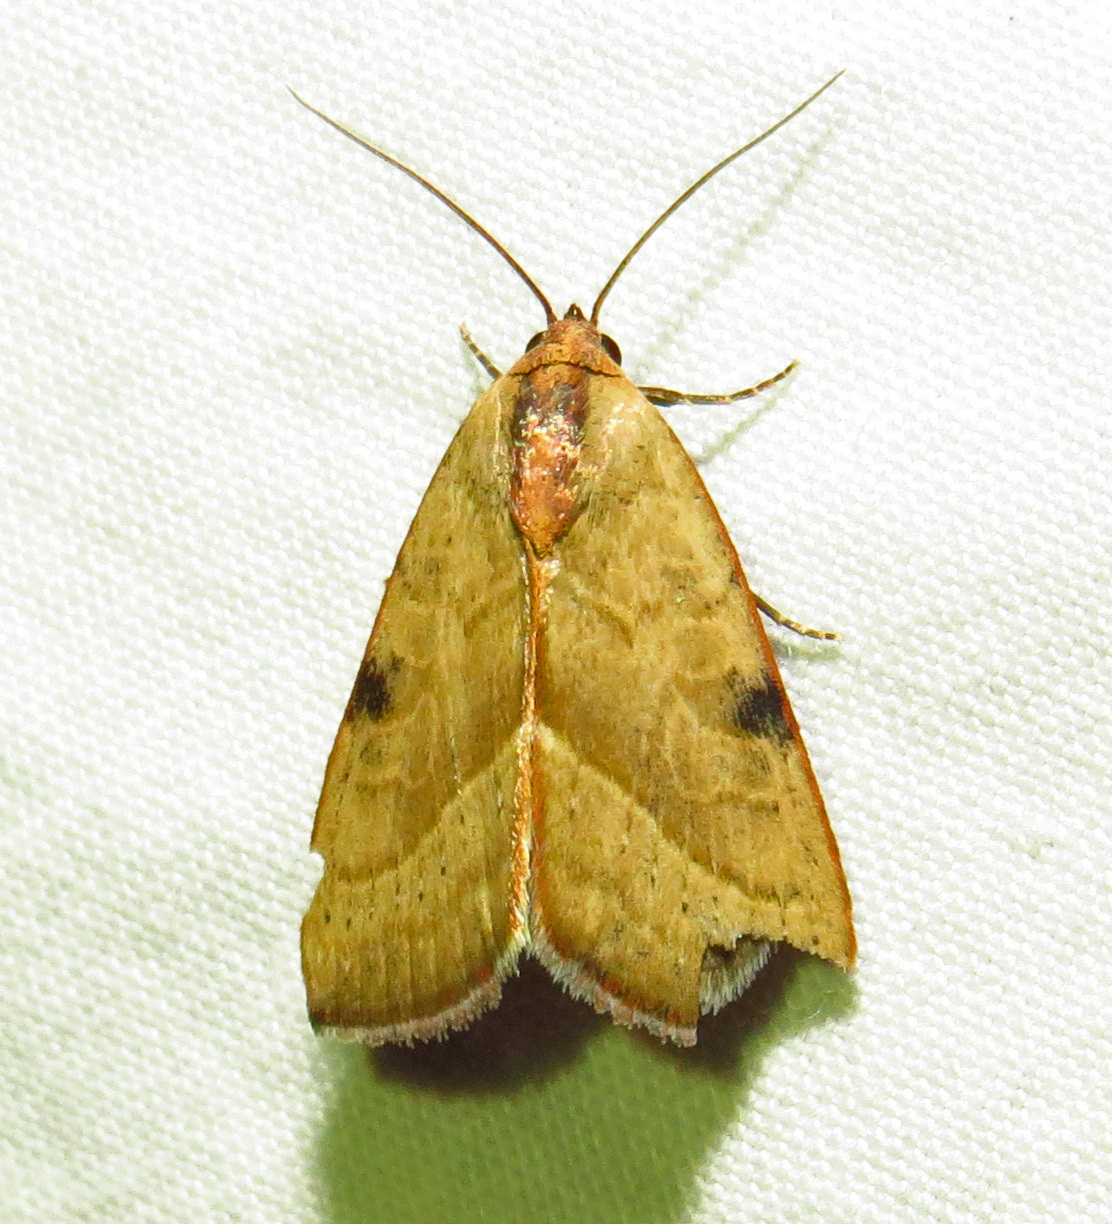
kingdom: Animalia
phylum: Arthropoda
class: Insecta
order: Lepidoptera
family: Noctuidae
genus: Galgula
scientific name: Galgula partita
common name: Wedgeling
